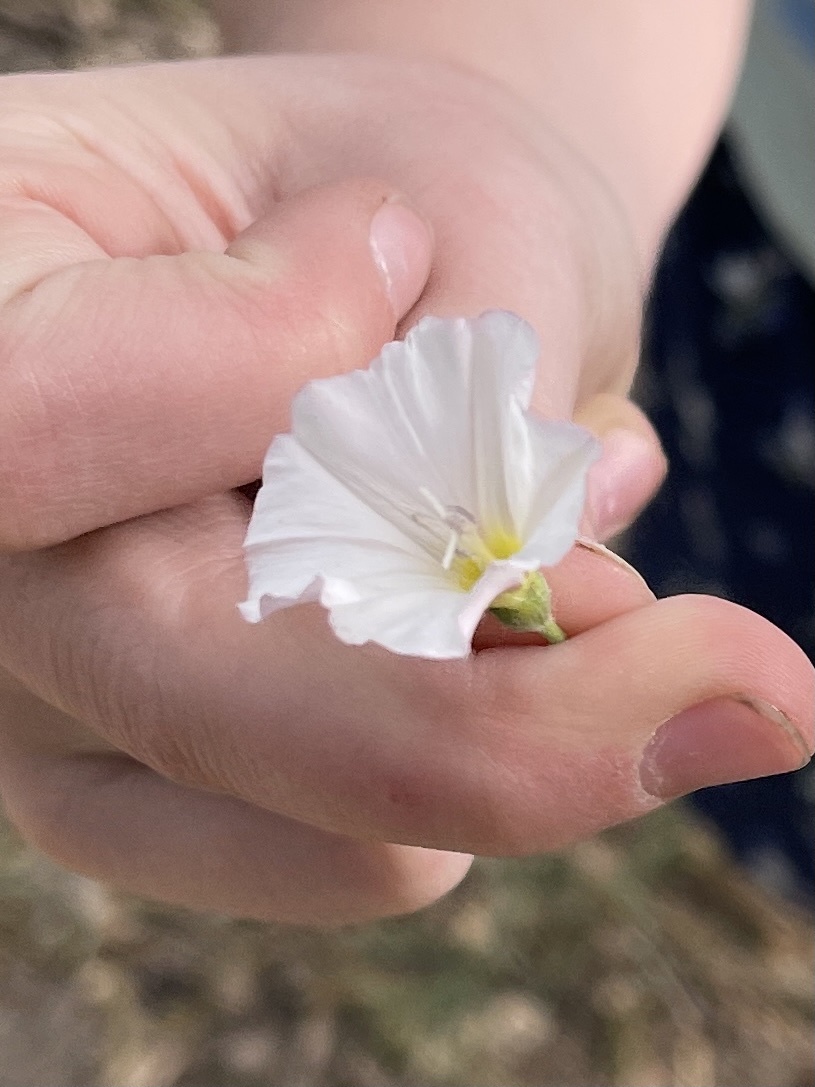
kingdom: Plantae
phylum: Tracheophyta
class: Magnoliopsida
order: Solanales
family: Convolvulaceae
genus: Convolvulus
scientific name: Convolvulus arvensis
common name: Field bindweed
